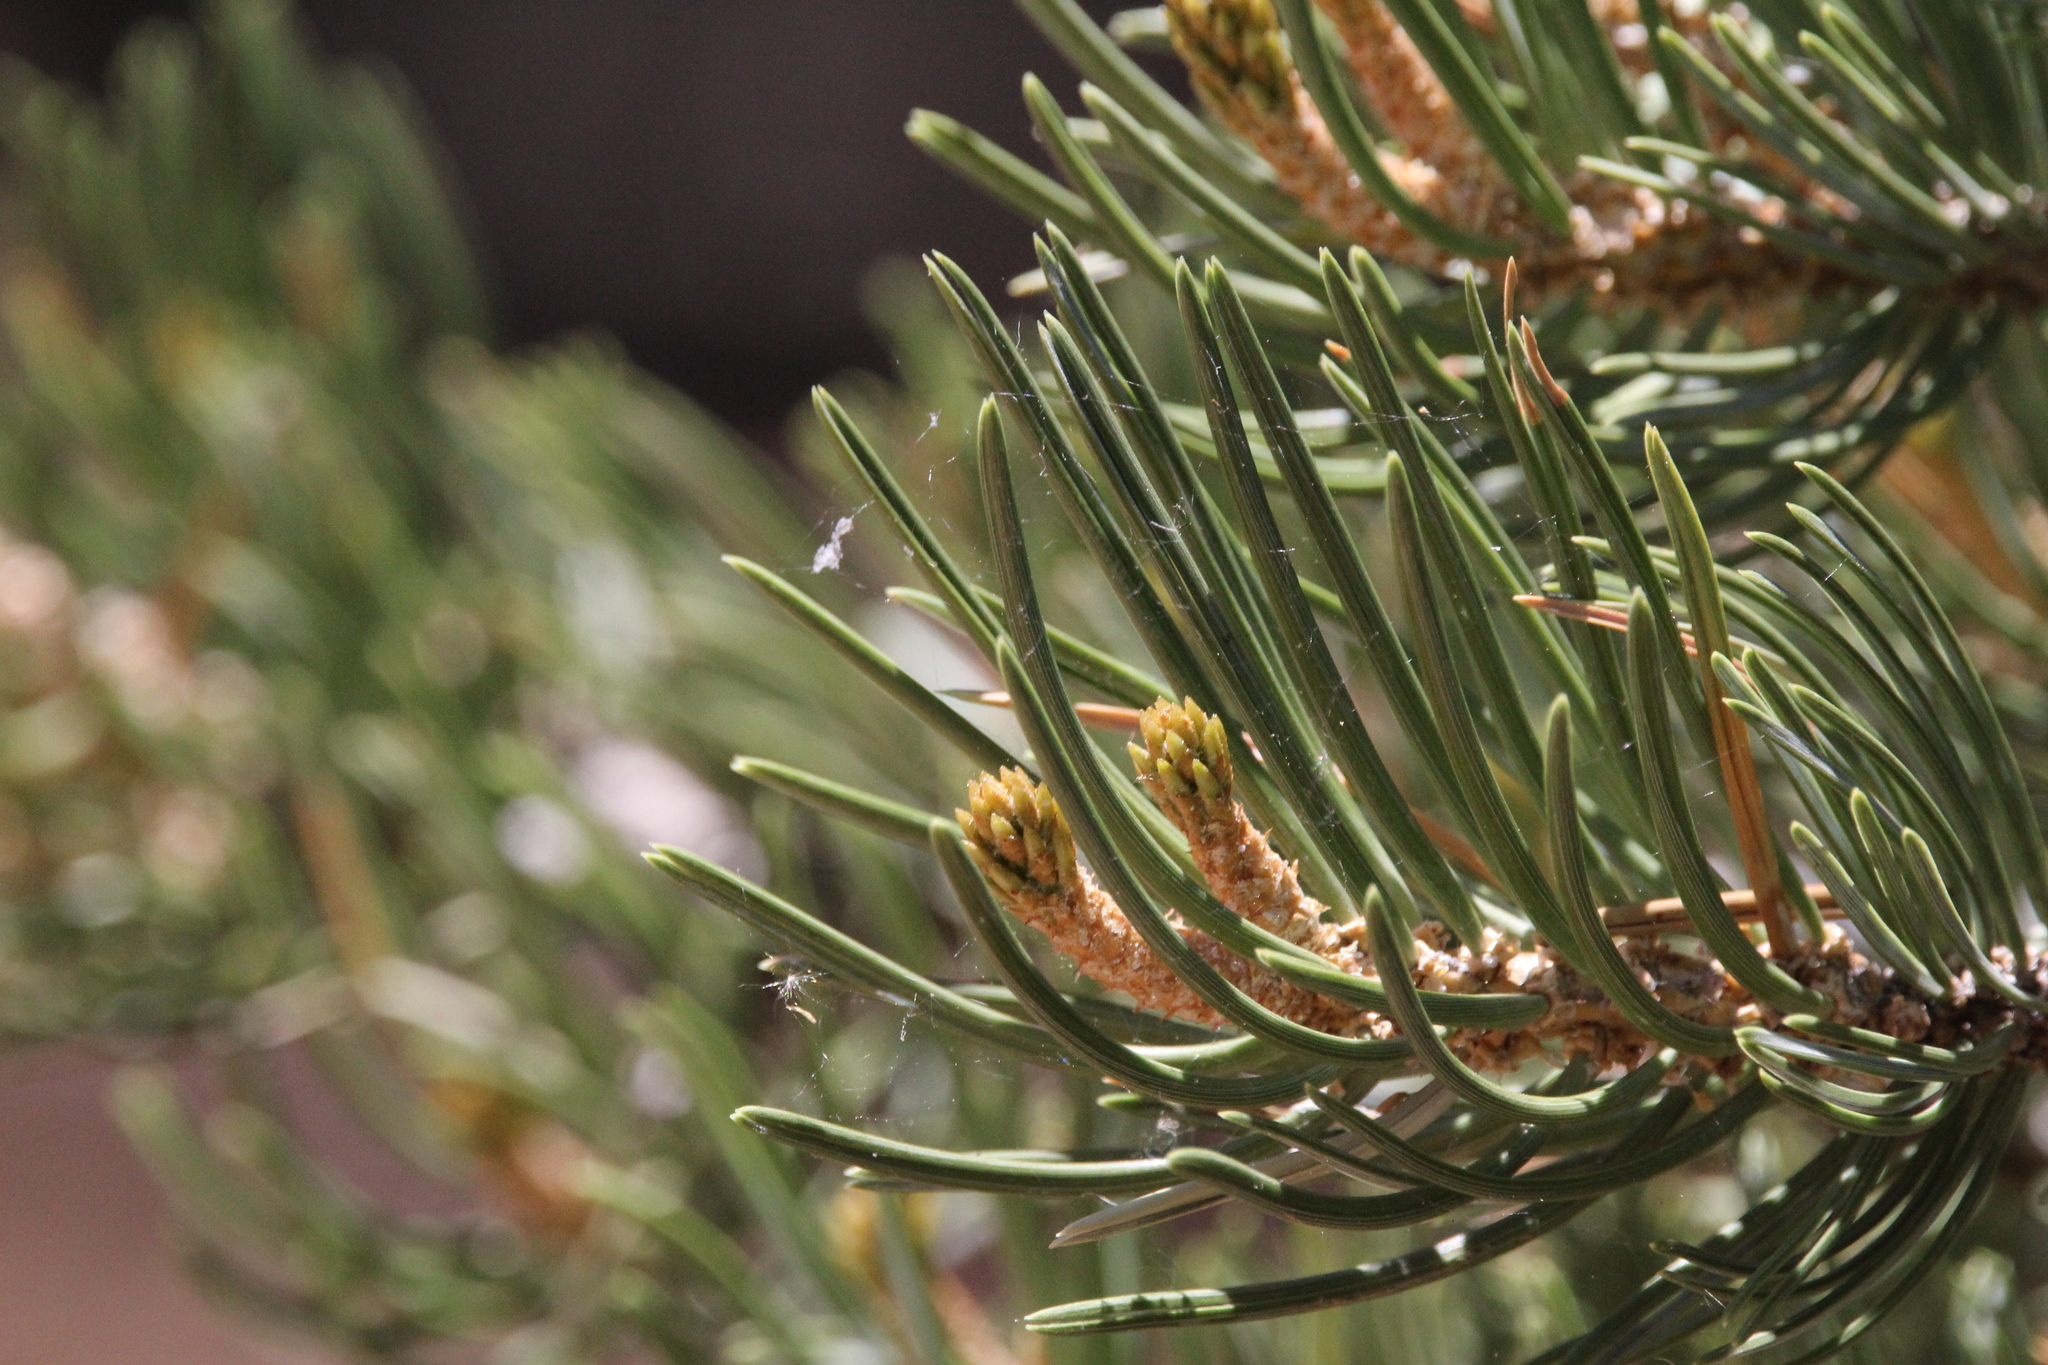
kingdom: Plantae
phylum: Tracheophyta
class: Pinopsida
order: Pinales
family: Pinaceae
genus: Pinus
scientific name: Pinus edulis
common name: Colorado pinyon
